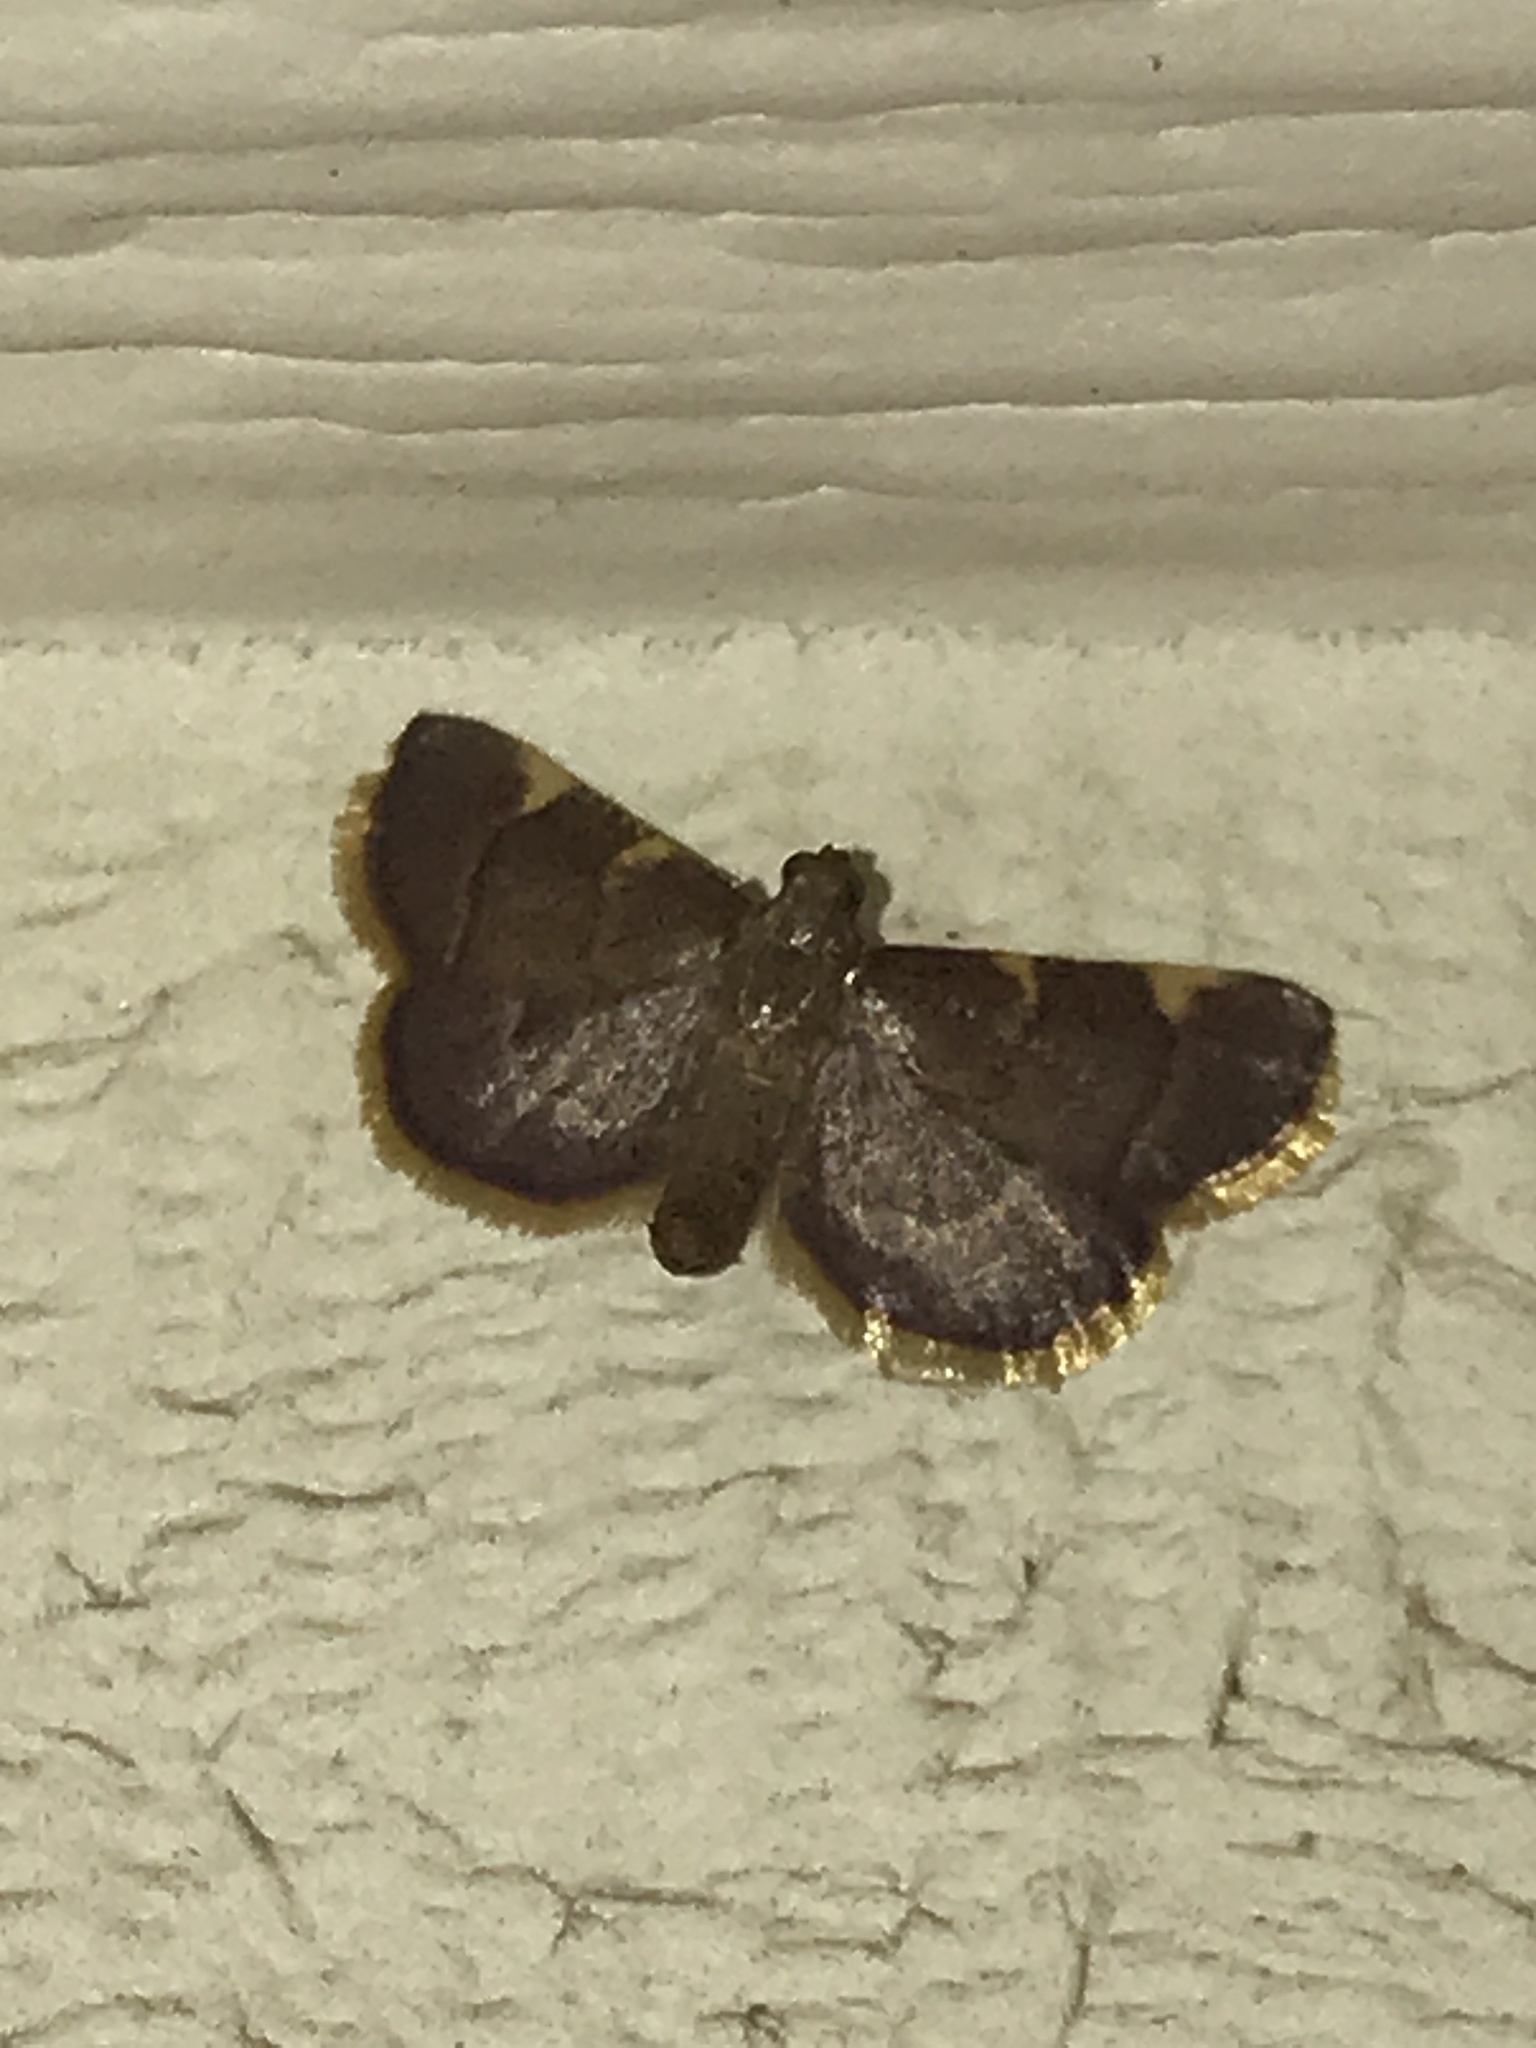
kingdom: Animalia
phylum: Arthropoda
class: Insecta
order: Lepidoptera
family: Pyralidae
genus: Hypsopygia
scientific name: Hypsopygia olinalis
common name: Yellow-fringed dolichomia moth
